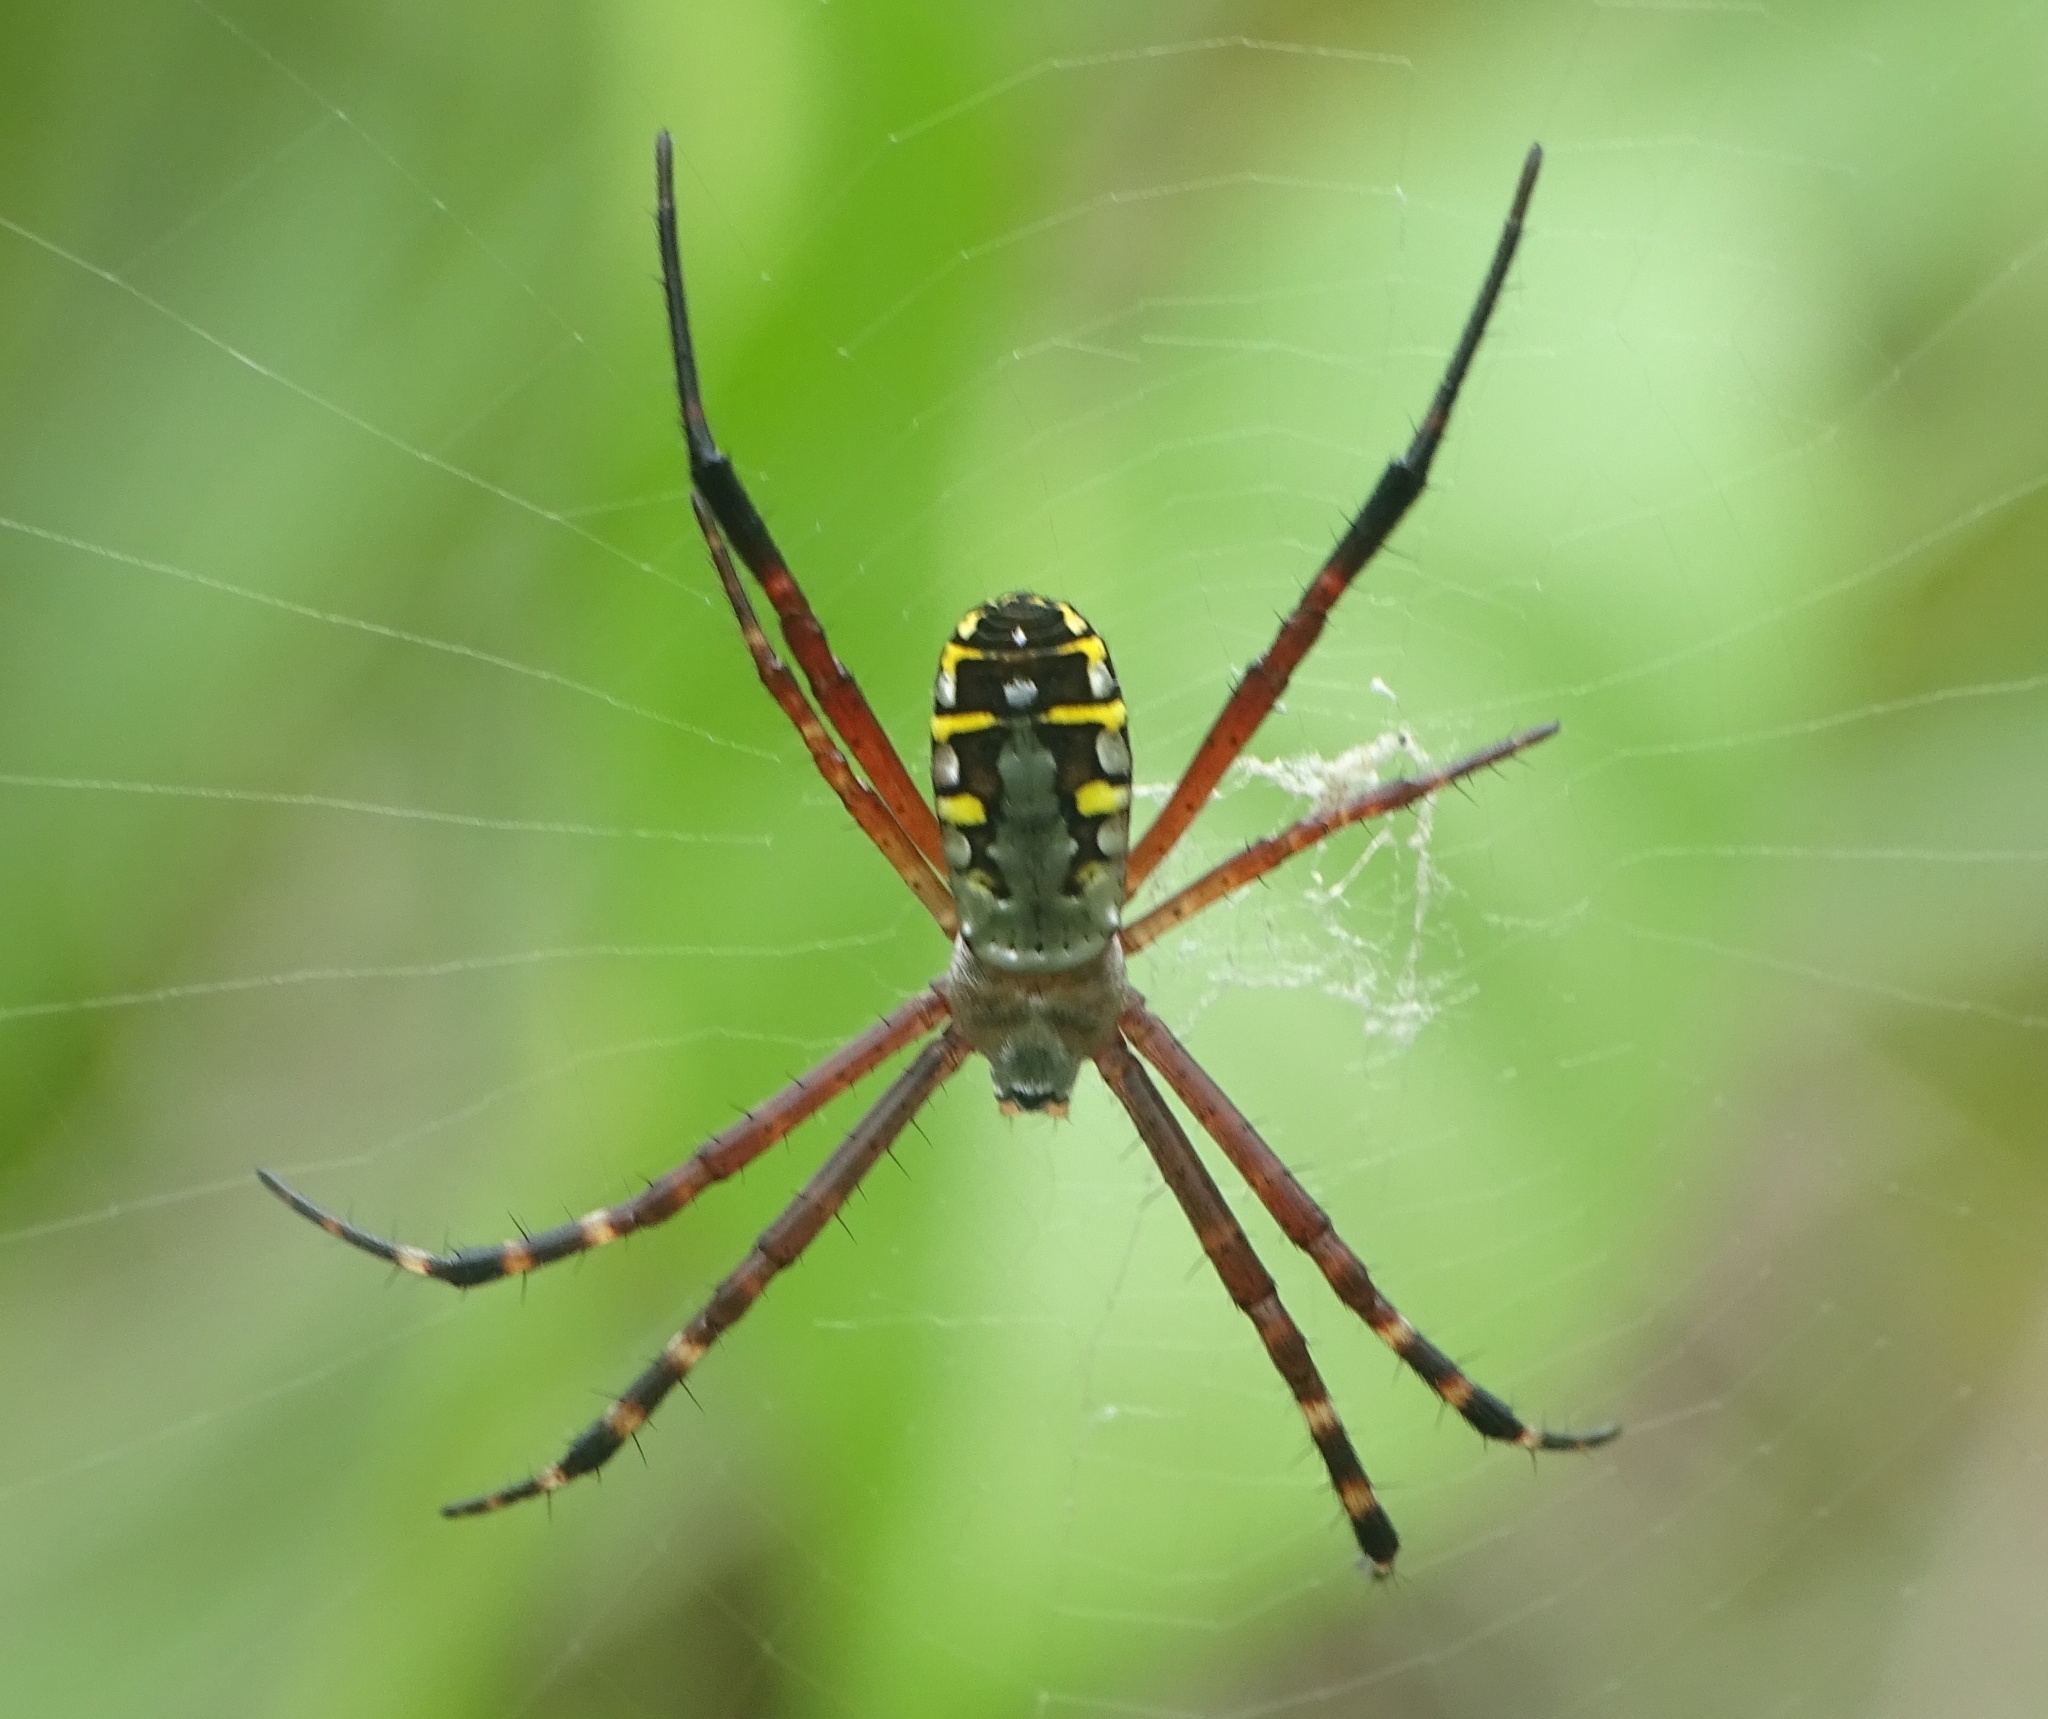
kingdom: Animalia
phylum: Arthropoda
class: Arachnida
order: Araneae
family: Araneidae
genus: Argiope
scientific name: Argiope catenulata
